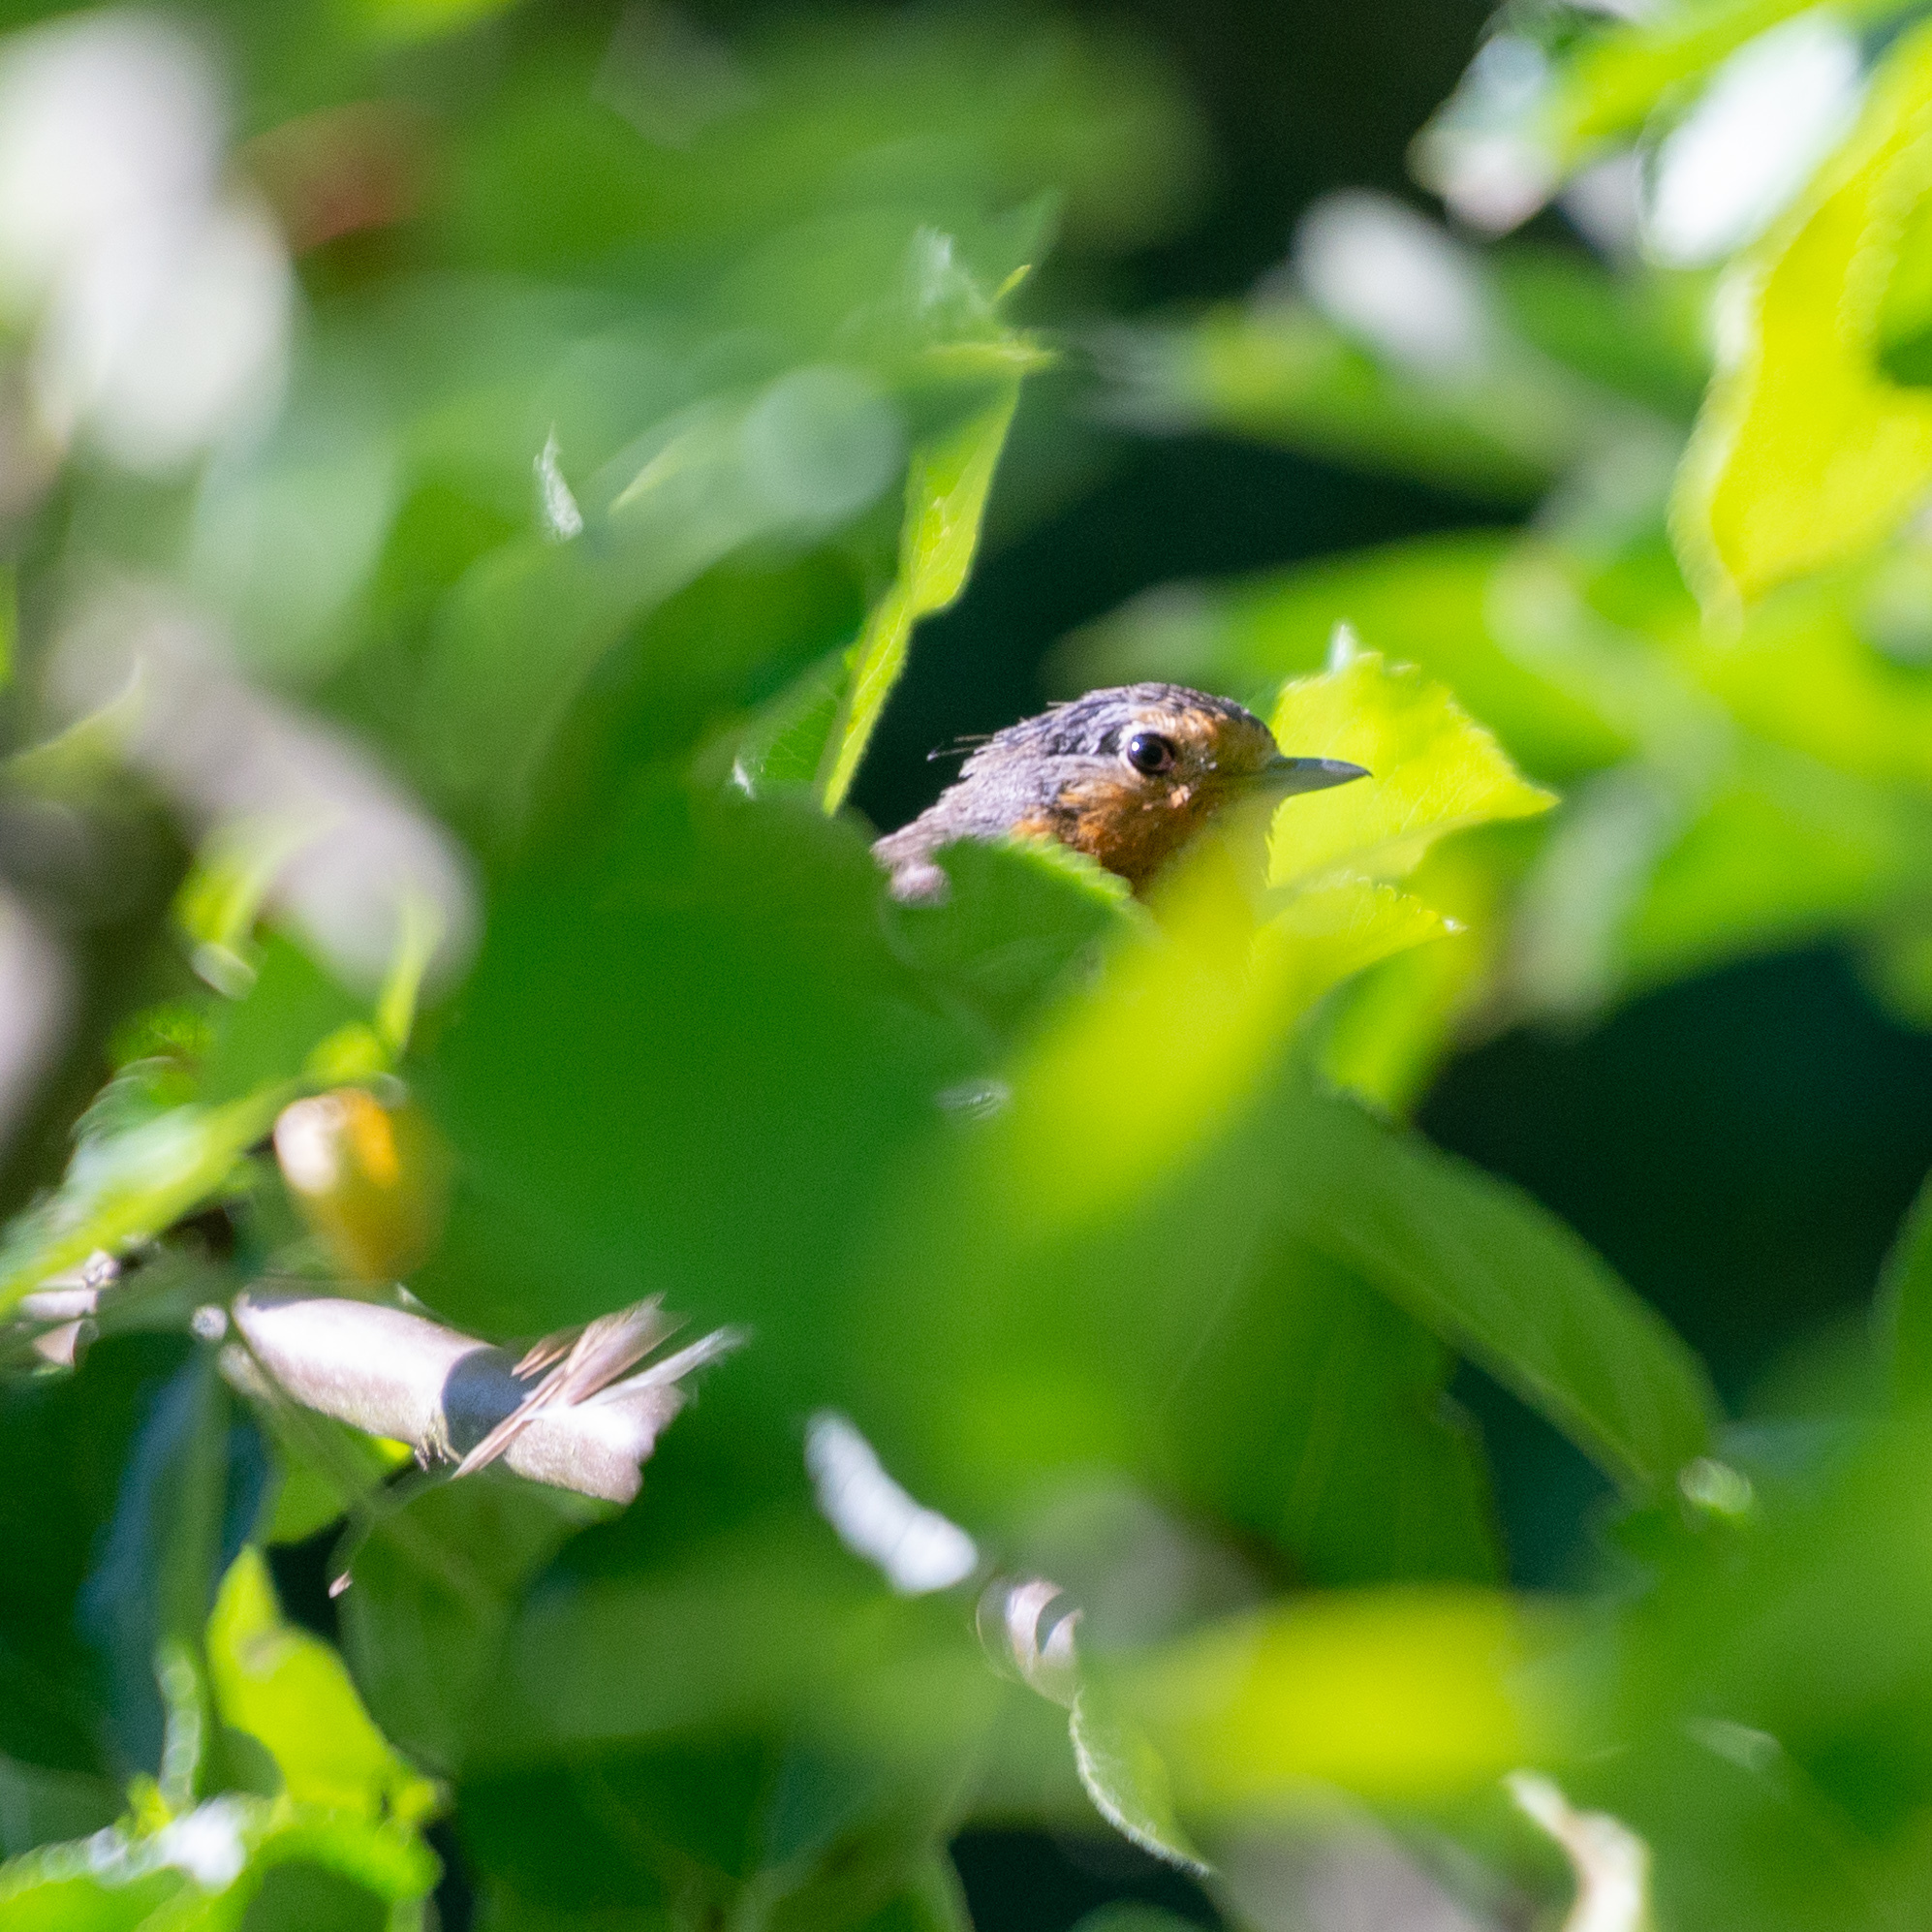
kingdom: Animalia
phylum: Chordata
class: Aves
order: Passeriformes
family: Muscicapidae
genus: Erithacus
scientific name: Erithacus rubecula
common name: European robin
